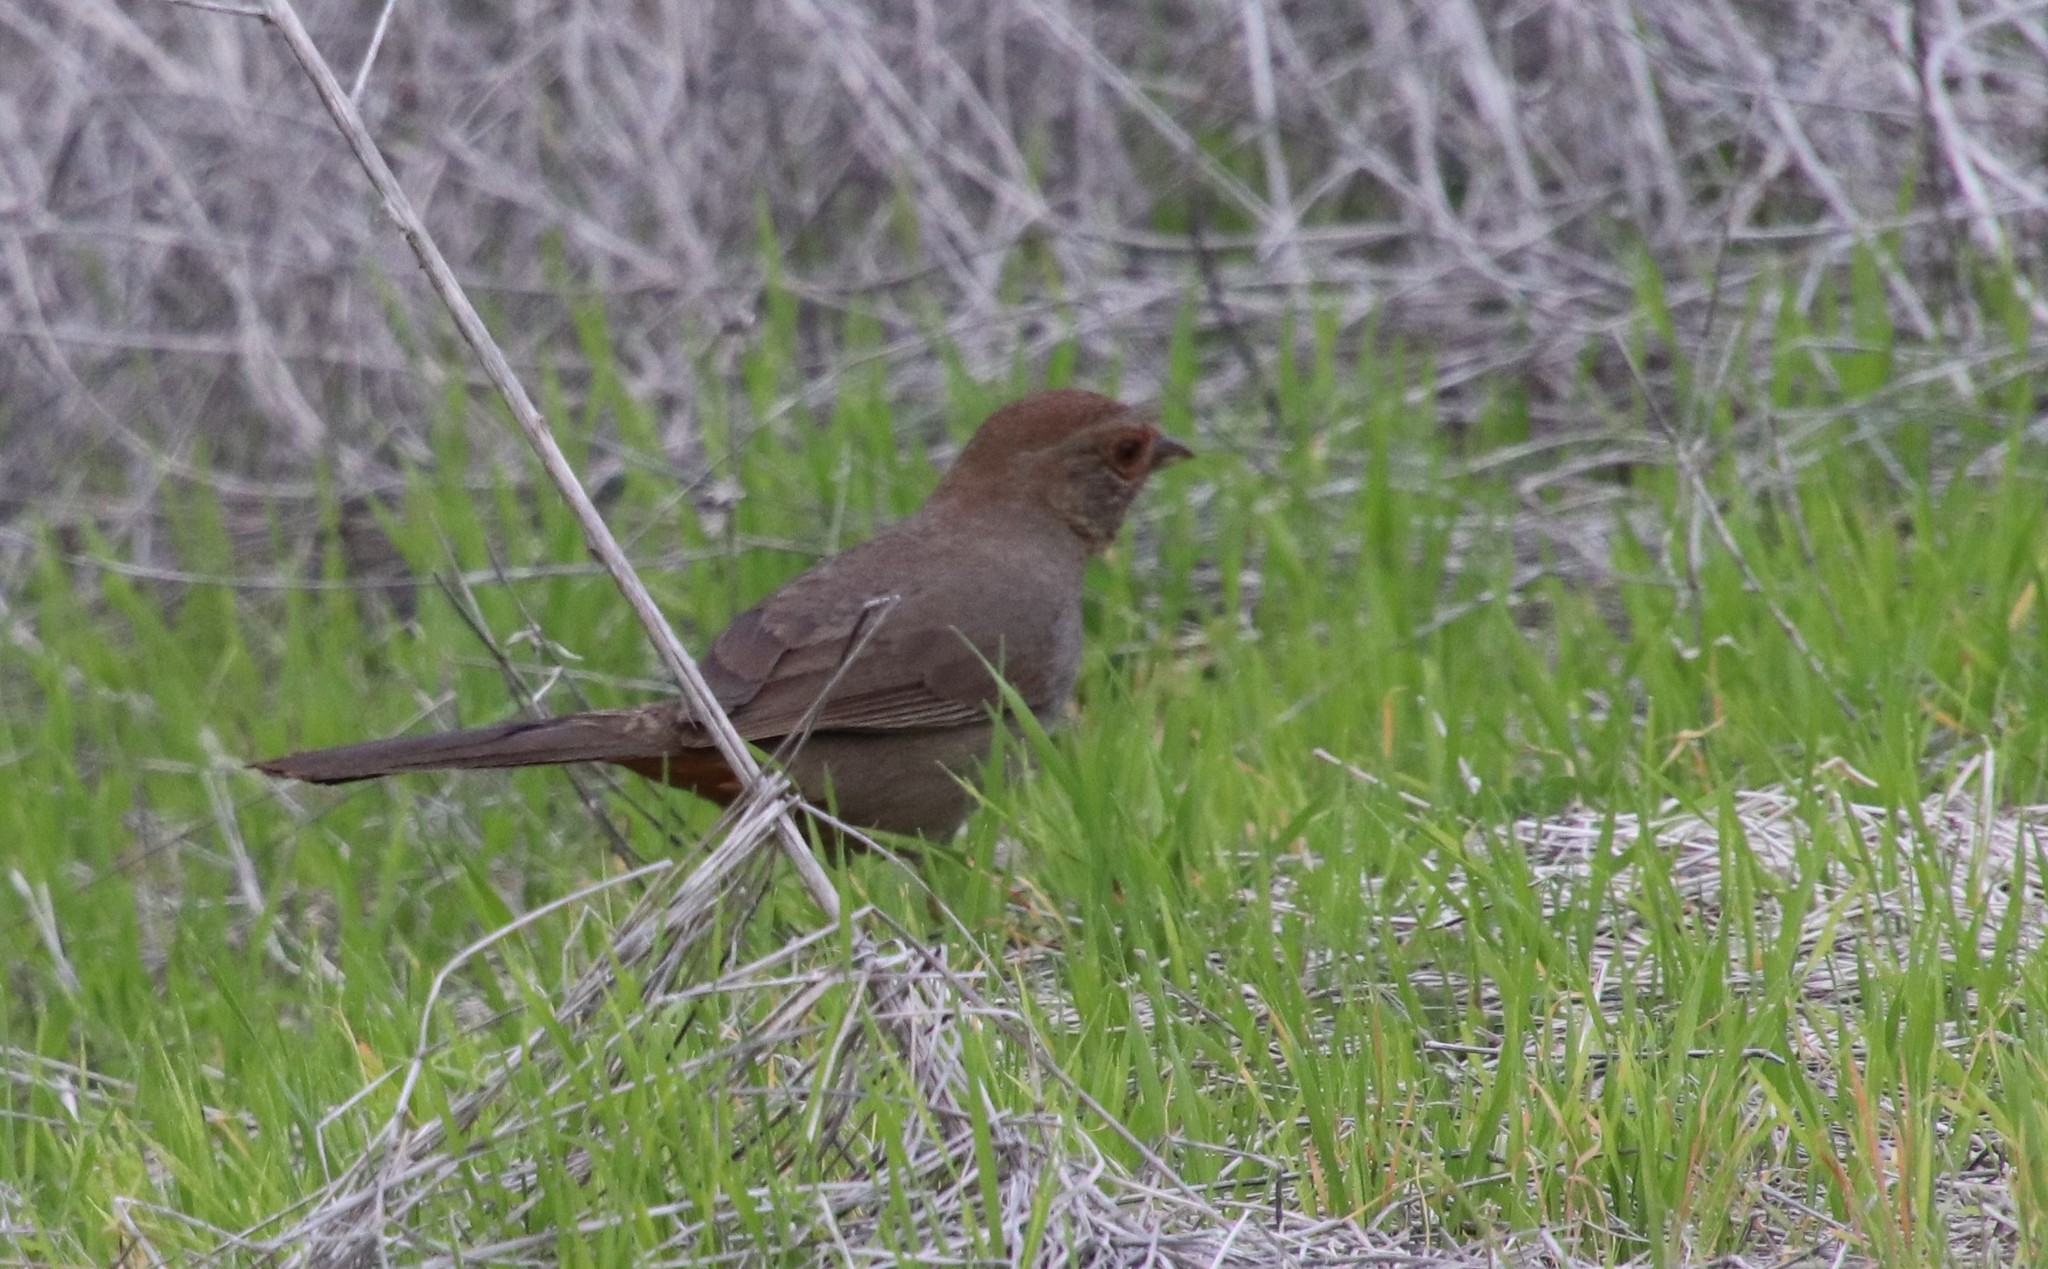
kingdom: Animalia
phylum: Chordata
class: Aves
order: Passeriformes
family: Passerellidae
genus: Melozone
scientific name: Melozone crissalis
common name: California towhee
